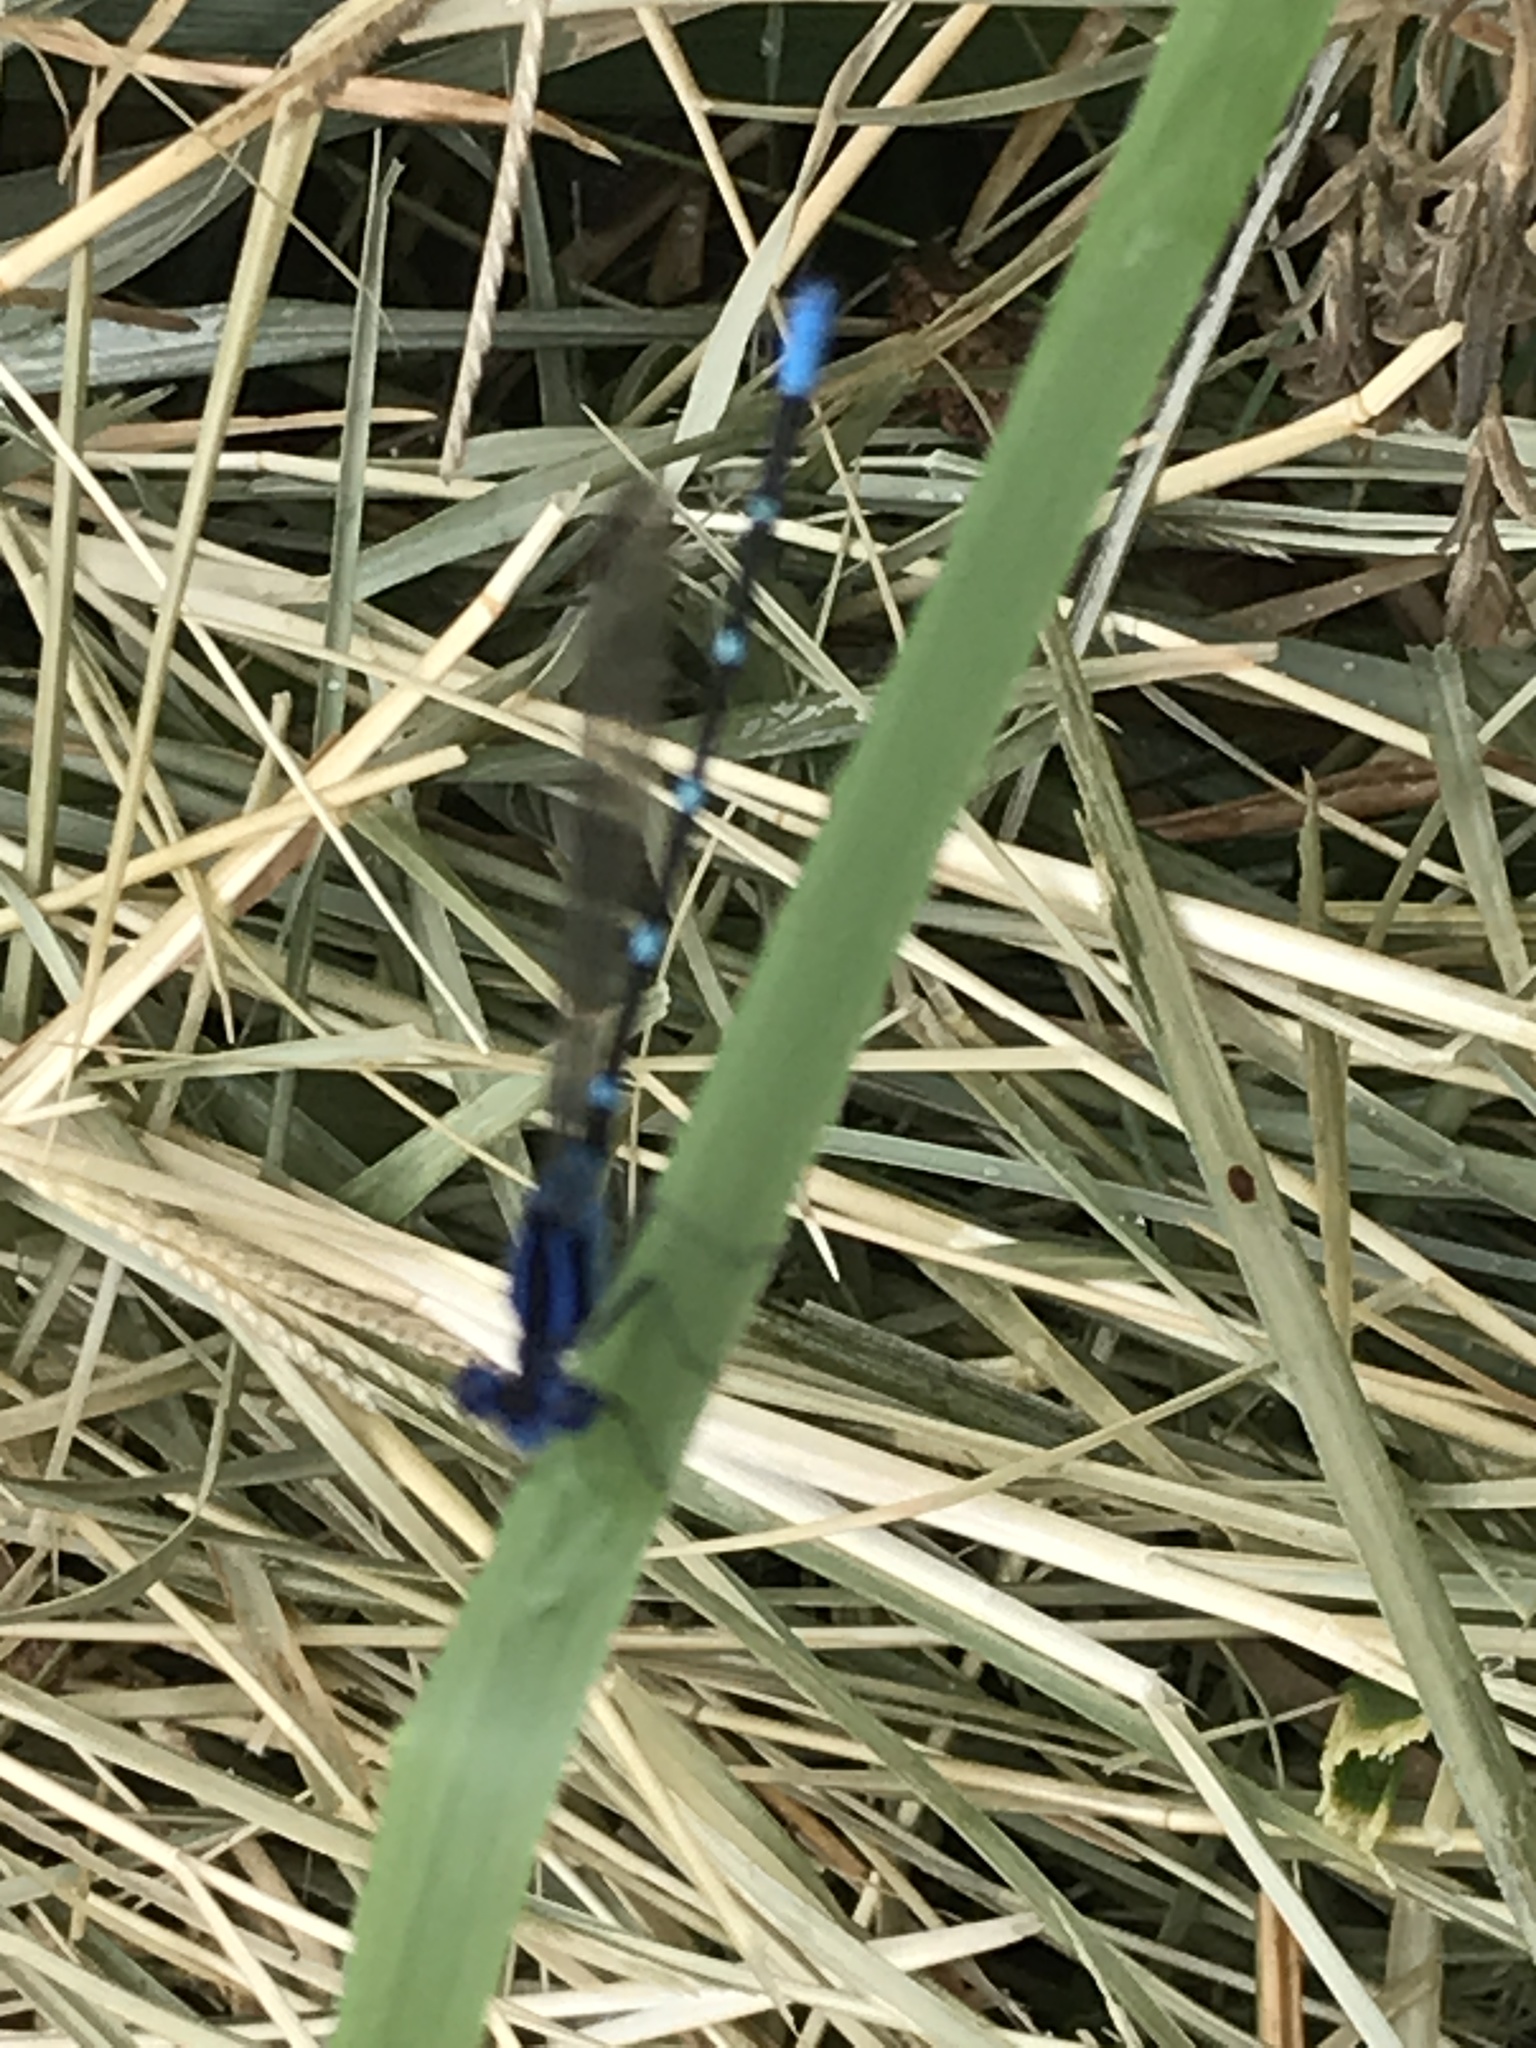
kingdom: Animalia
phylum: Arthropoda
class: Insecta
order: Odonata
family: Coenagrionidae
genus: Argia
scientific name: Argia sedula
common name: Blue-ringed dancer
